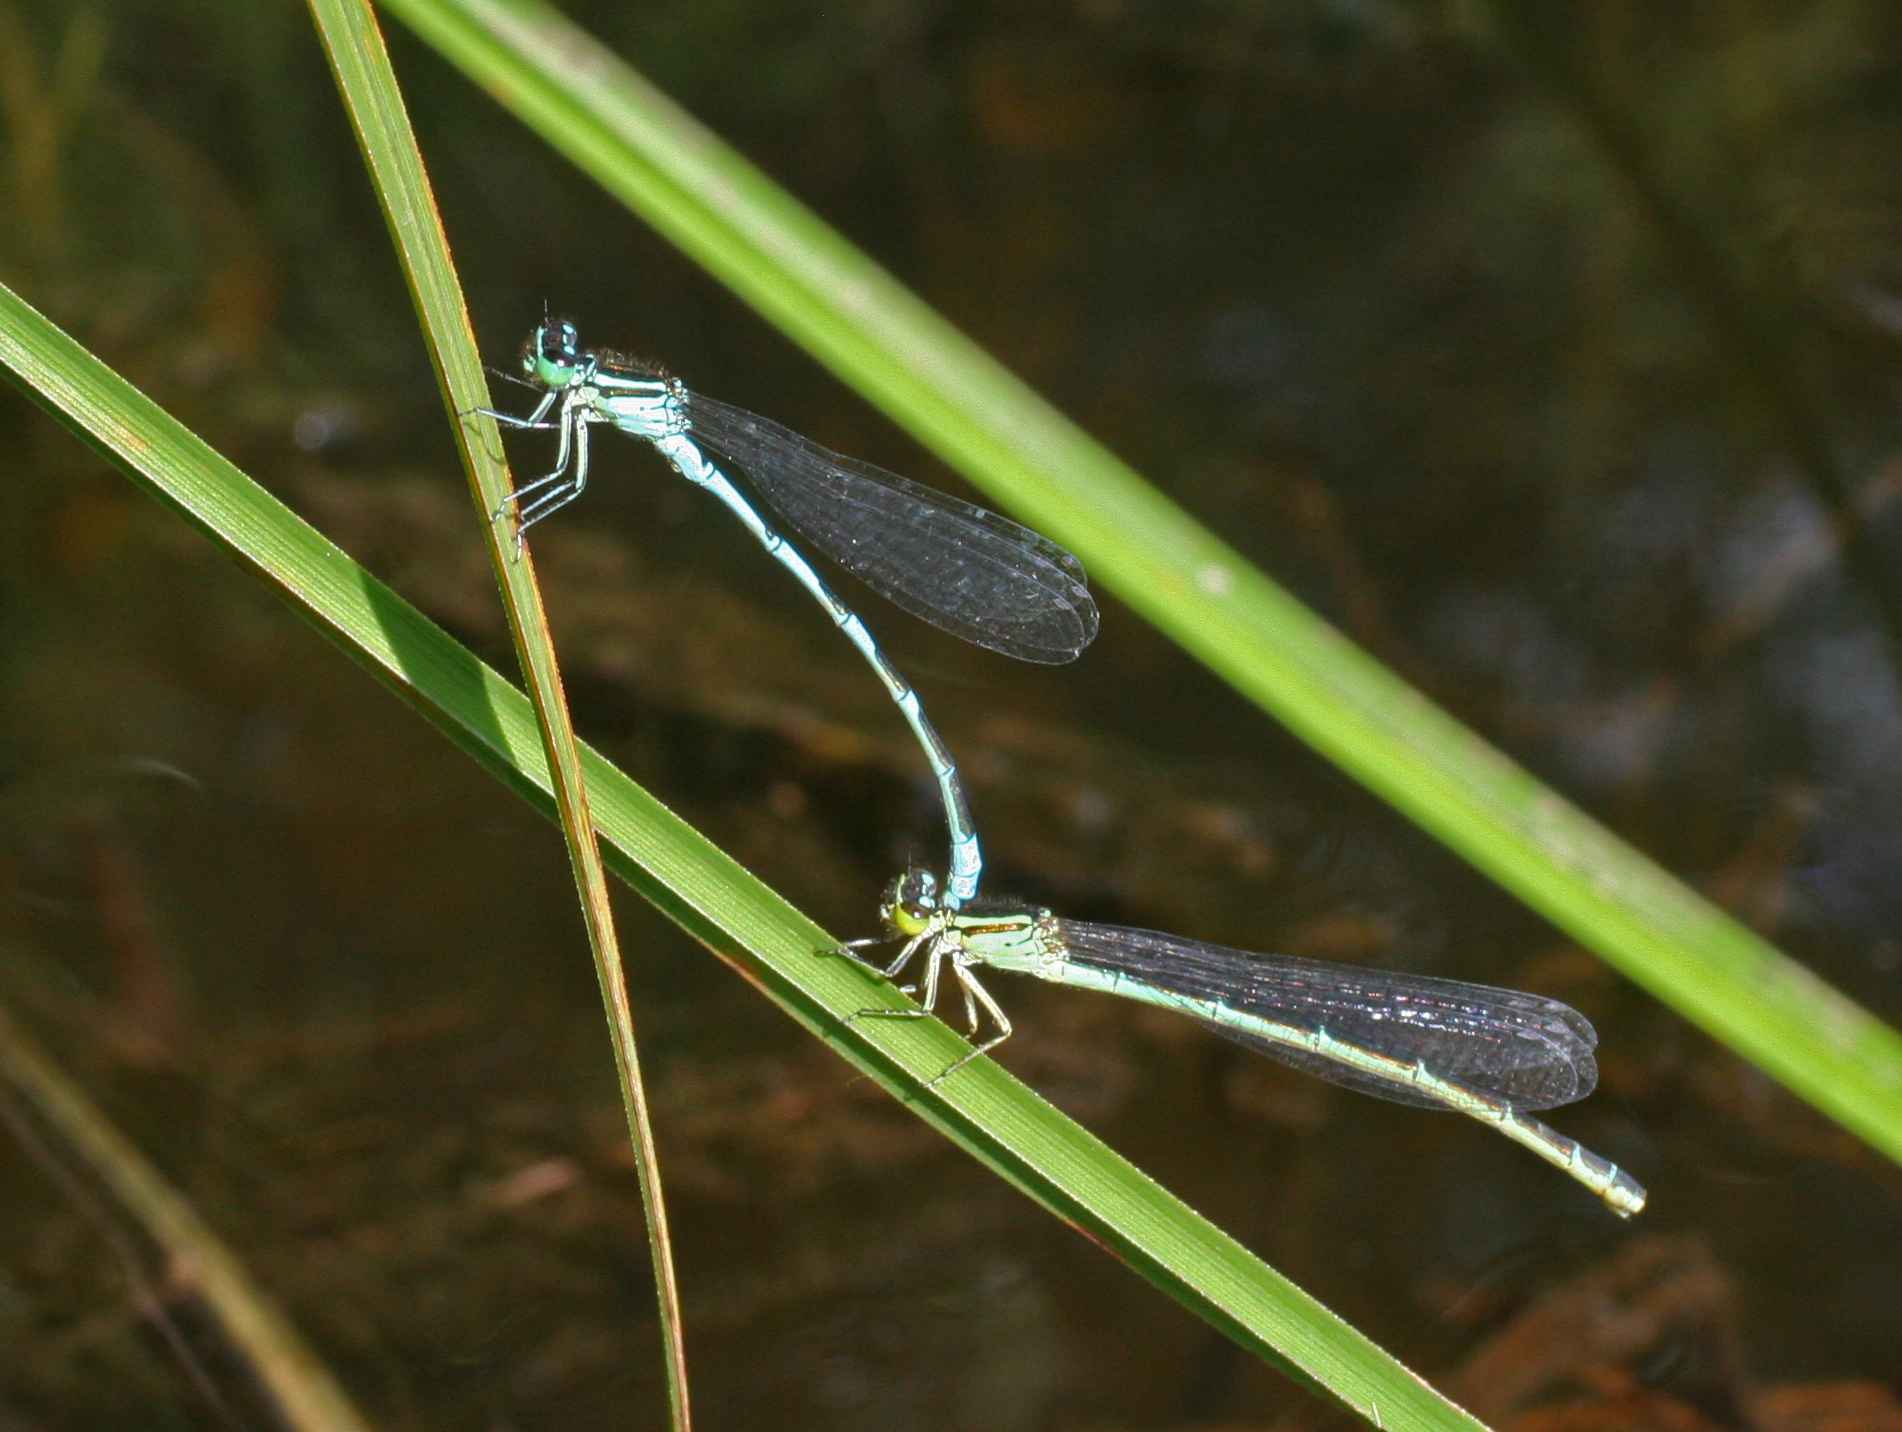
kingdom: Animalia
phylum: Arthropoda
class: Insecta
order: Odonata
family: Coenagrionidae
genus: Coenagrion
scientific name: Coenagrion lanceolatum
